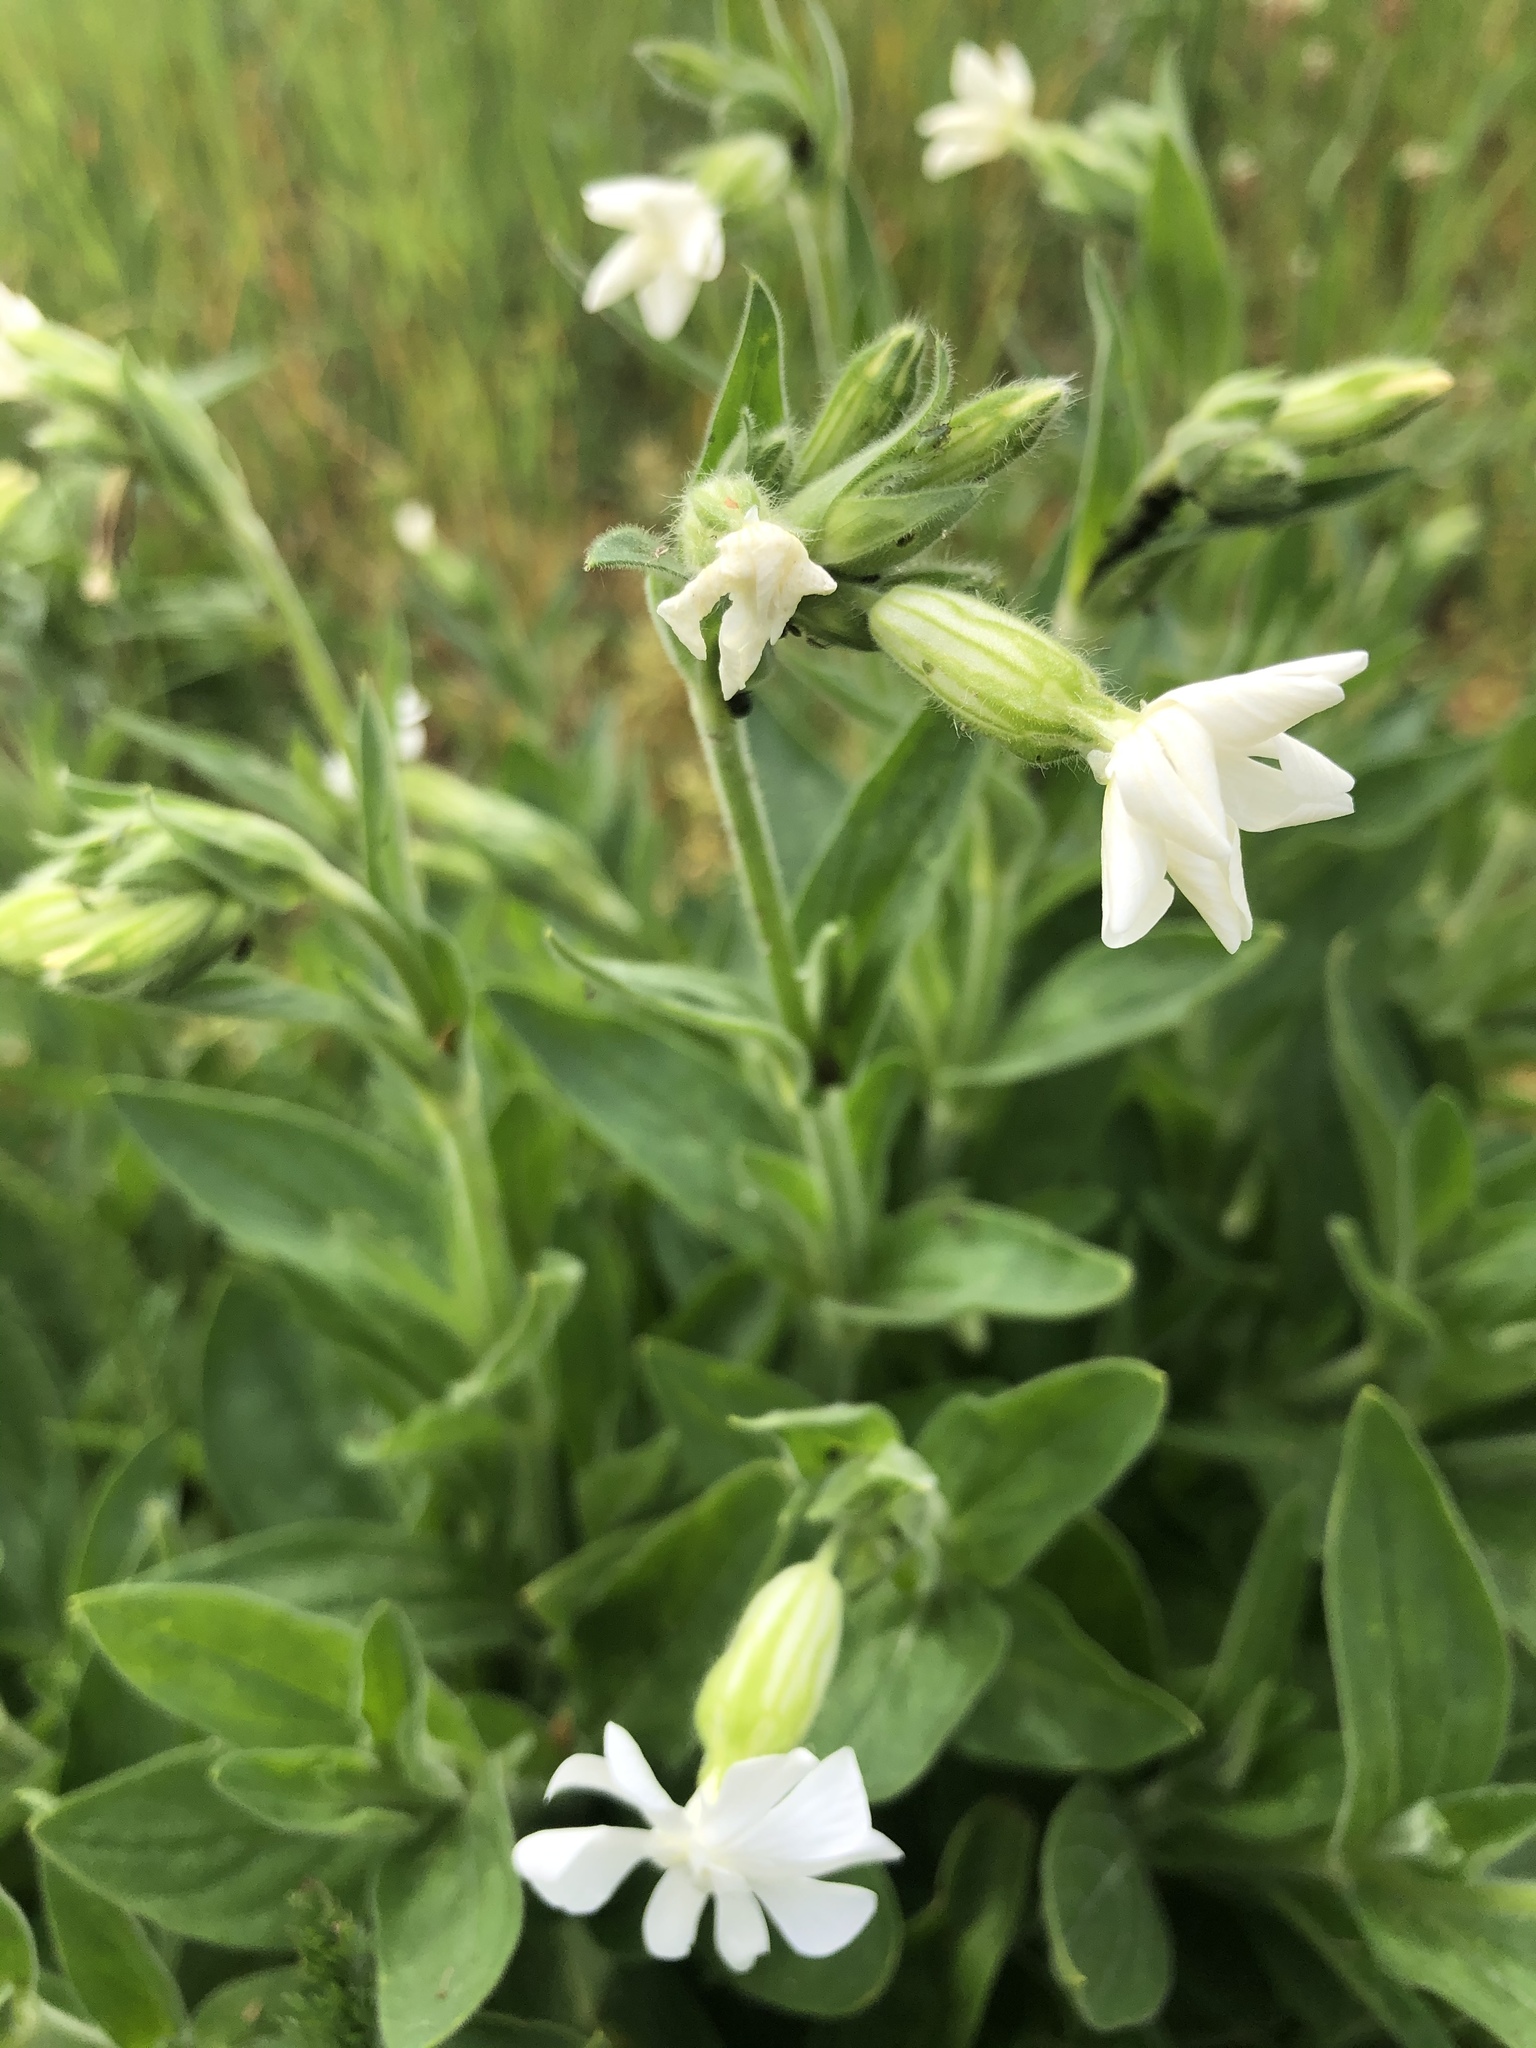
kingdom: Plantae
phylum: Tracheophyta
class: Magnoliopsida
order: Caryophyllales
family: Caryophyllaceae
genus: Silene
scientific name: Silene latifolia
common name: White campion
